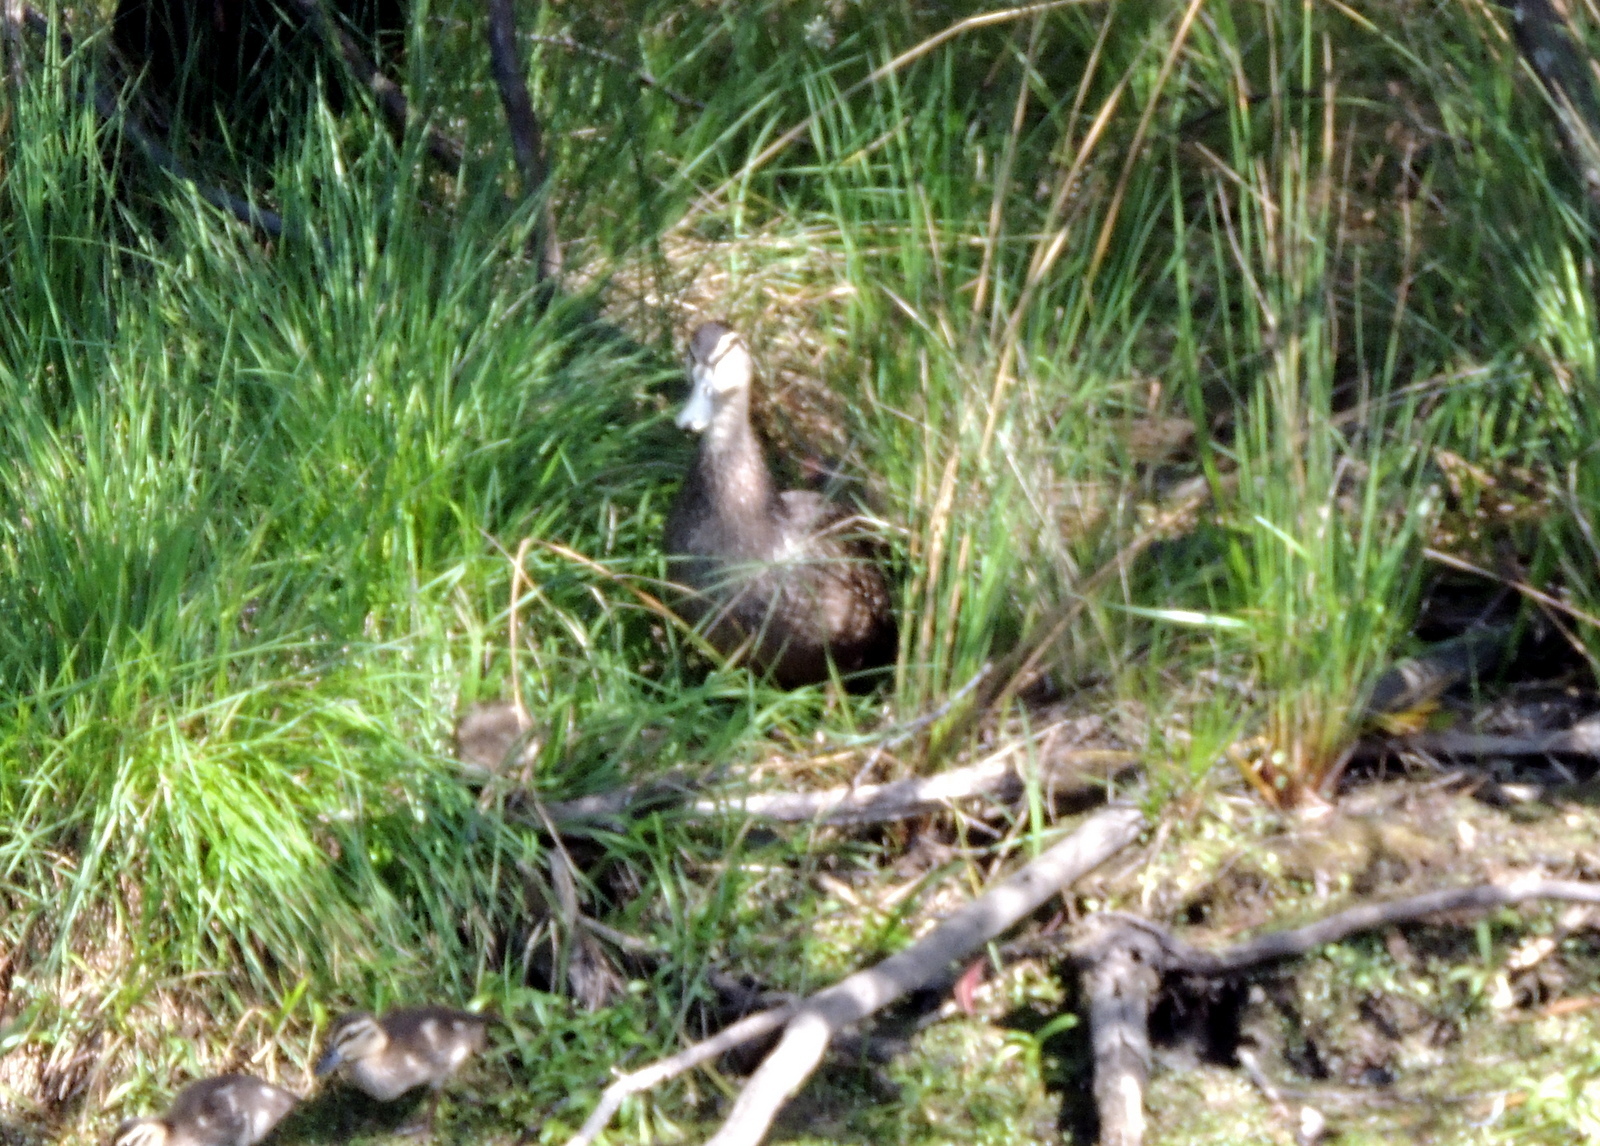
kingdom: Animalia
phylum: Chordata
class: Aves
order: Anseriformes
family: Anatidae
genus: Anas
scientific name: Anas superciliosa
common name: Pacific black duck
